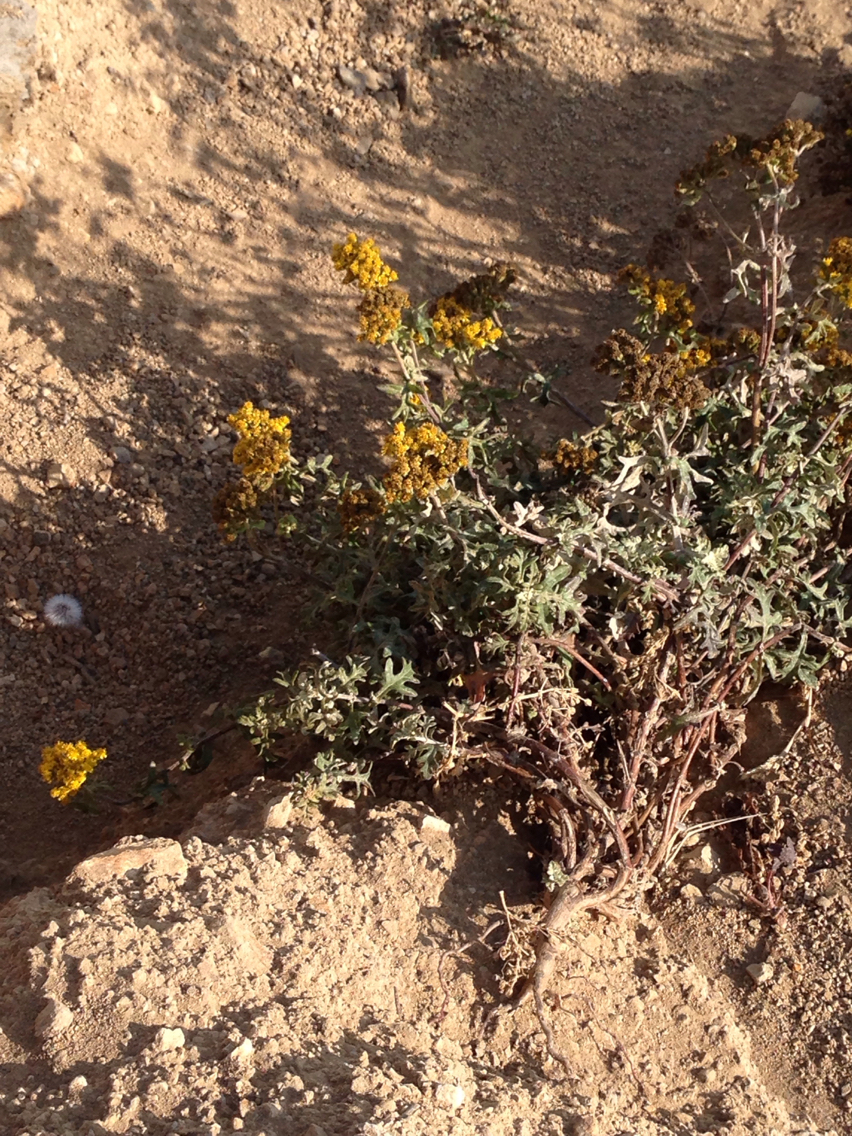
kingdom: Plantae
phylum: Tracheophyta
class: Magnoliopsida
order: Asterales
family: Asteraceae
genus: Eriophyllum
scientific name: Eriophyllum staechadifolium
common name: Lizardtail
